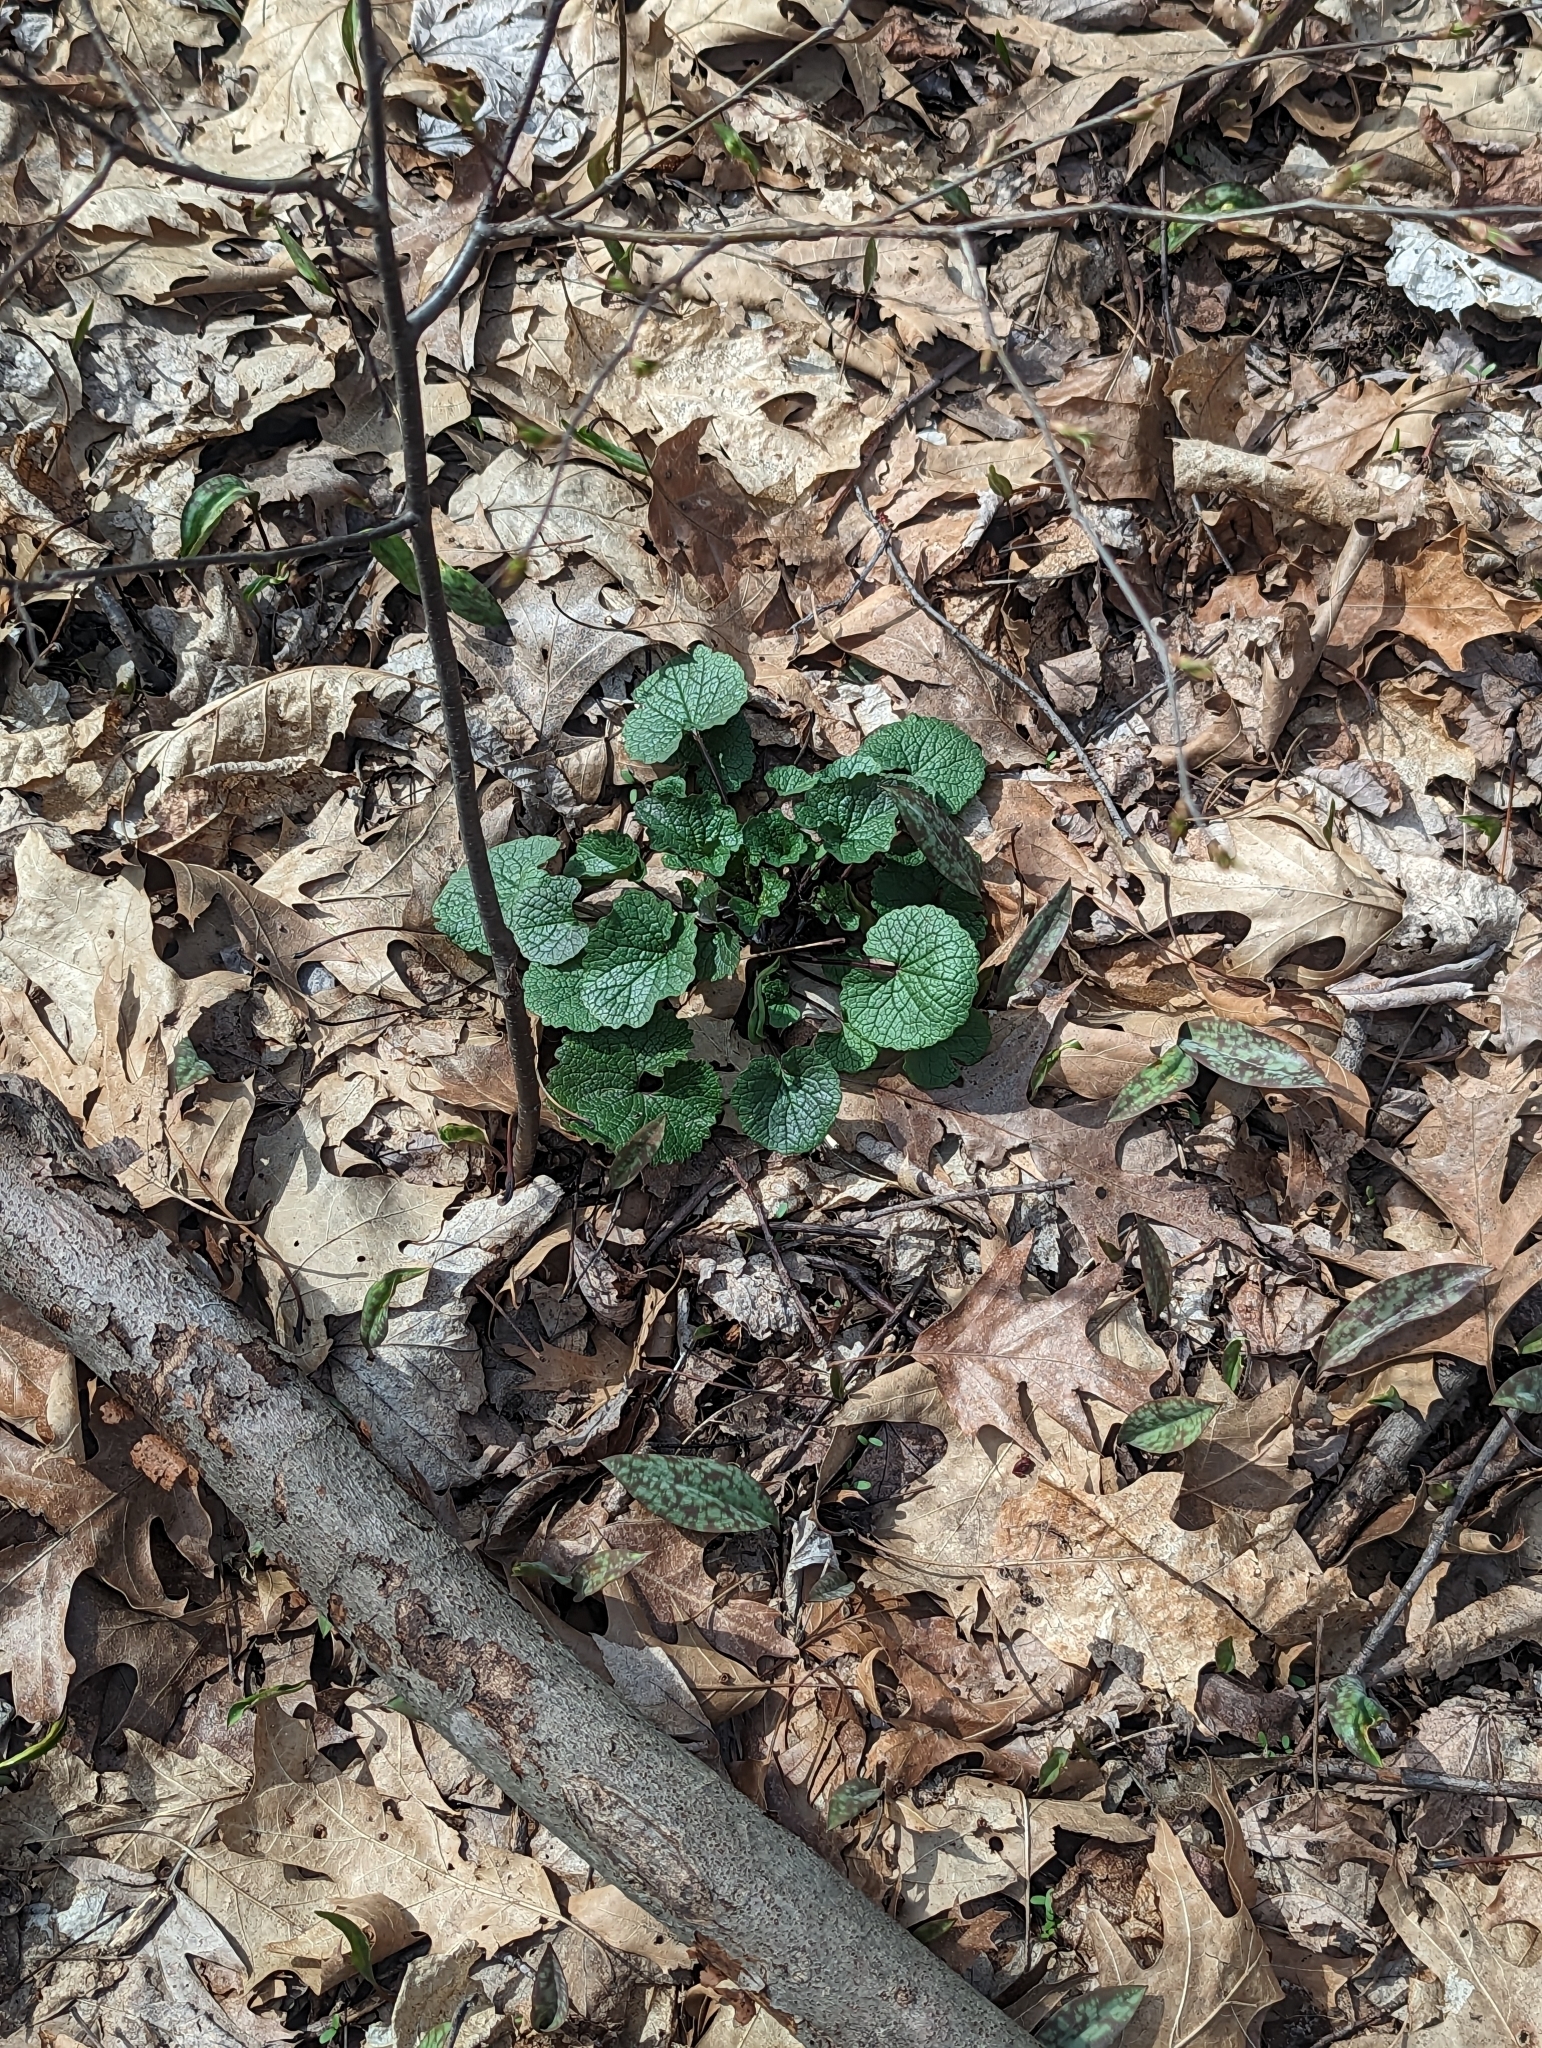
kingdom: Plantae
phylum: Tracheophyta
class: Magnoliopsida
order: Brassicales
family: Brassicaceae
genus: Alliaria
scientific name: Alliaria petiolata
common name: Garlic mustard
